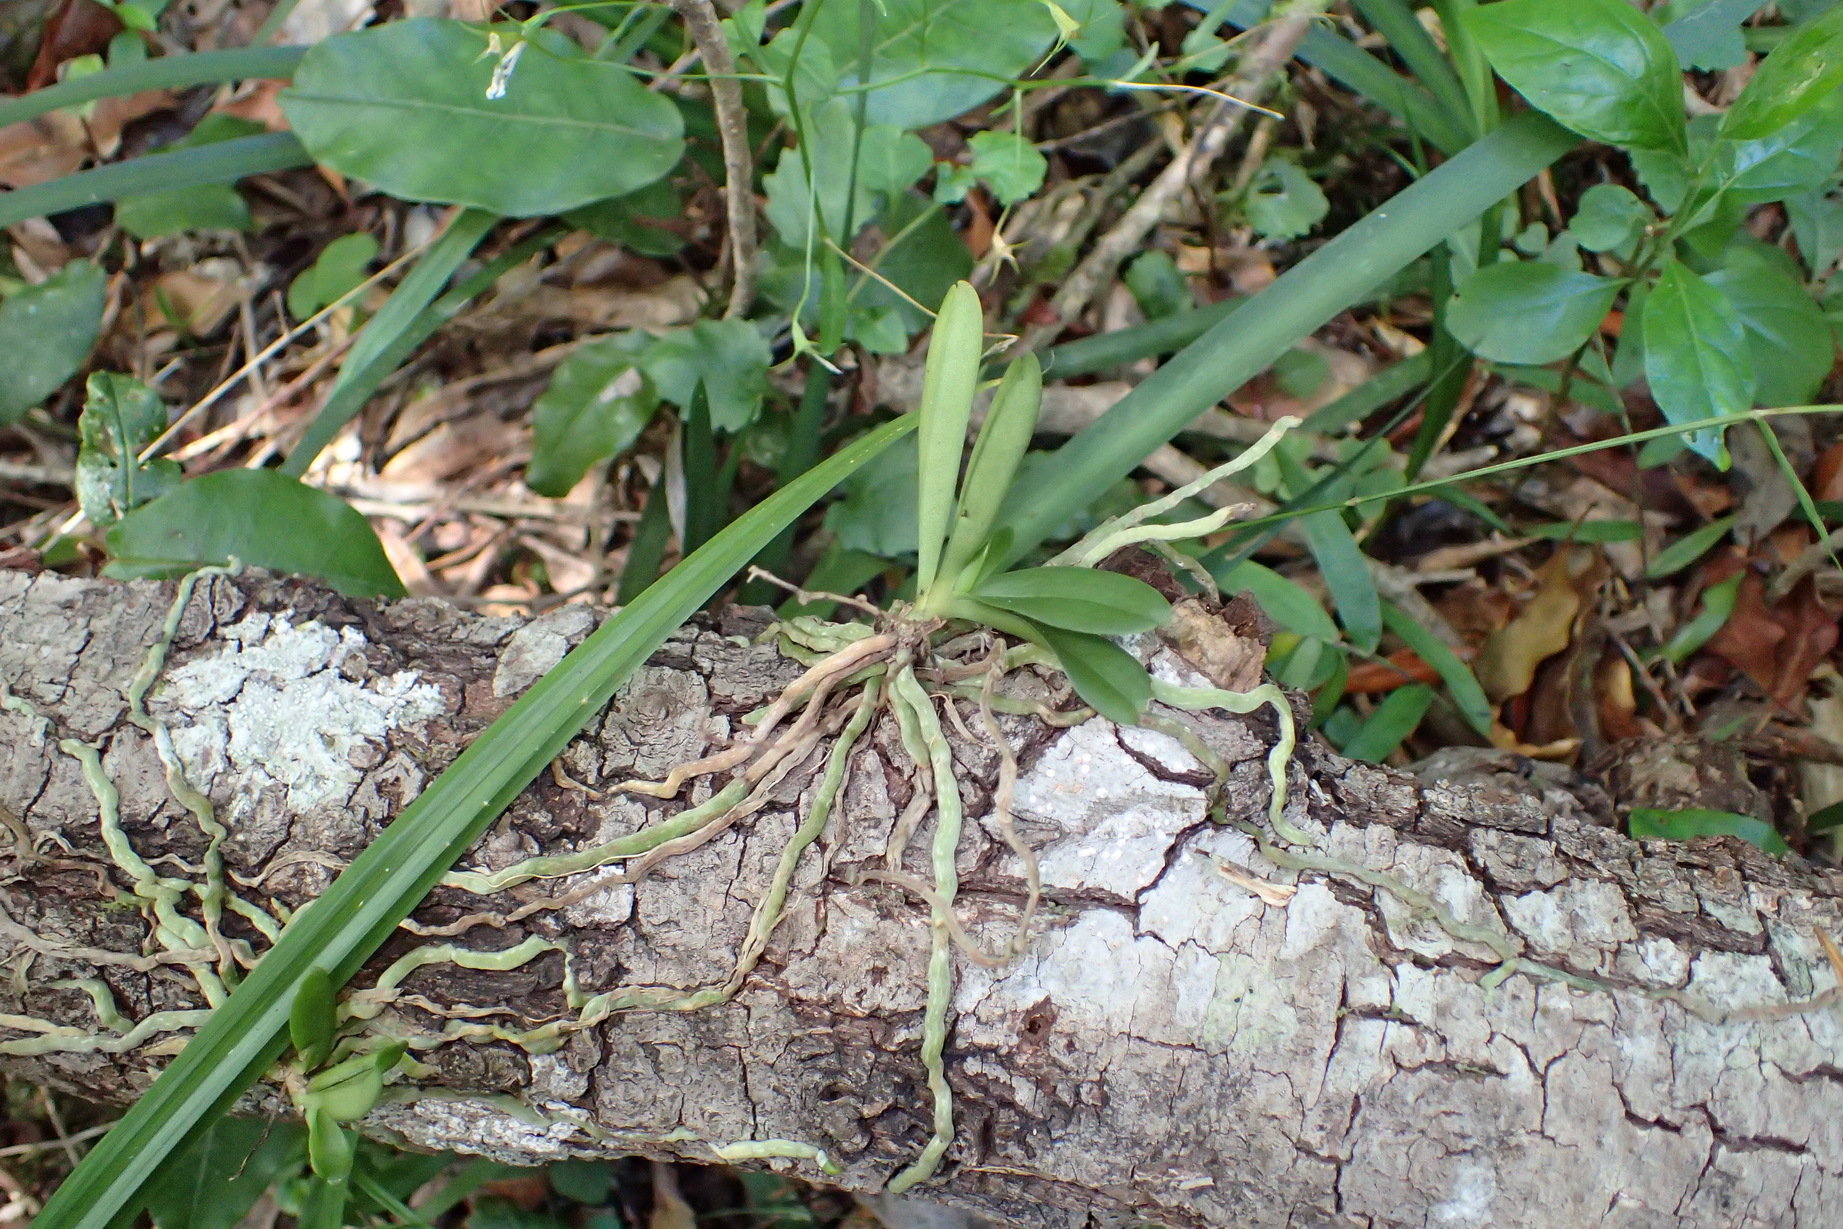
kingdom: Plantae
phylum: Tracheophyta
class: Liliopsida
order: Asparagales
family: Orchidaceae
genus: Mystacidium
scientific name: Mystacidium capense
